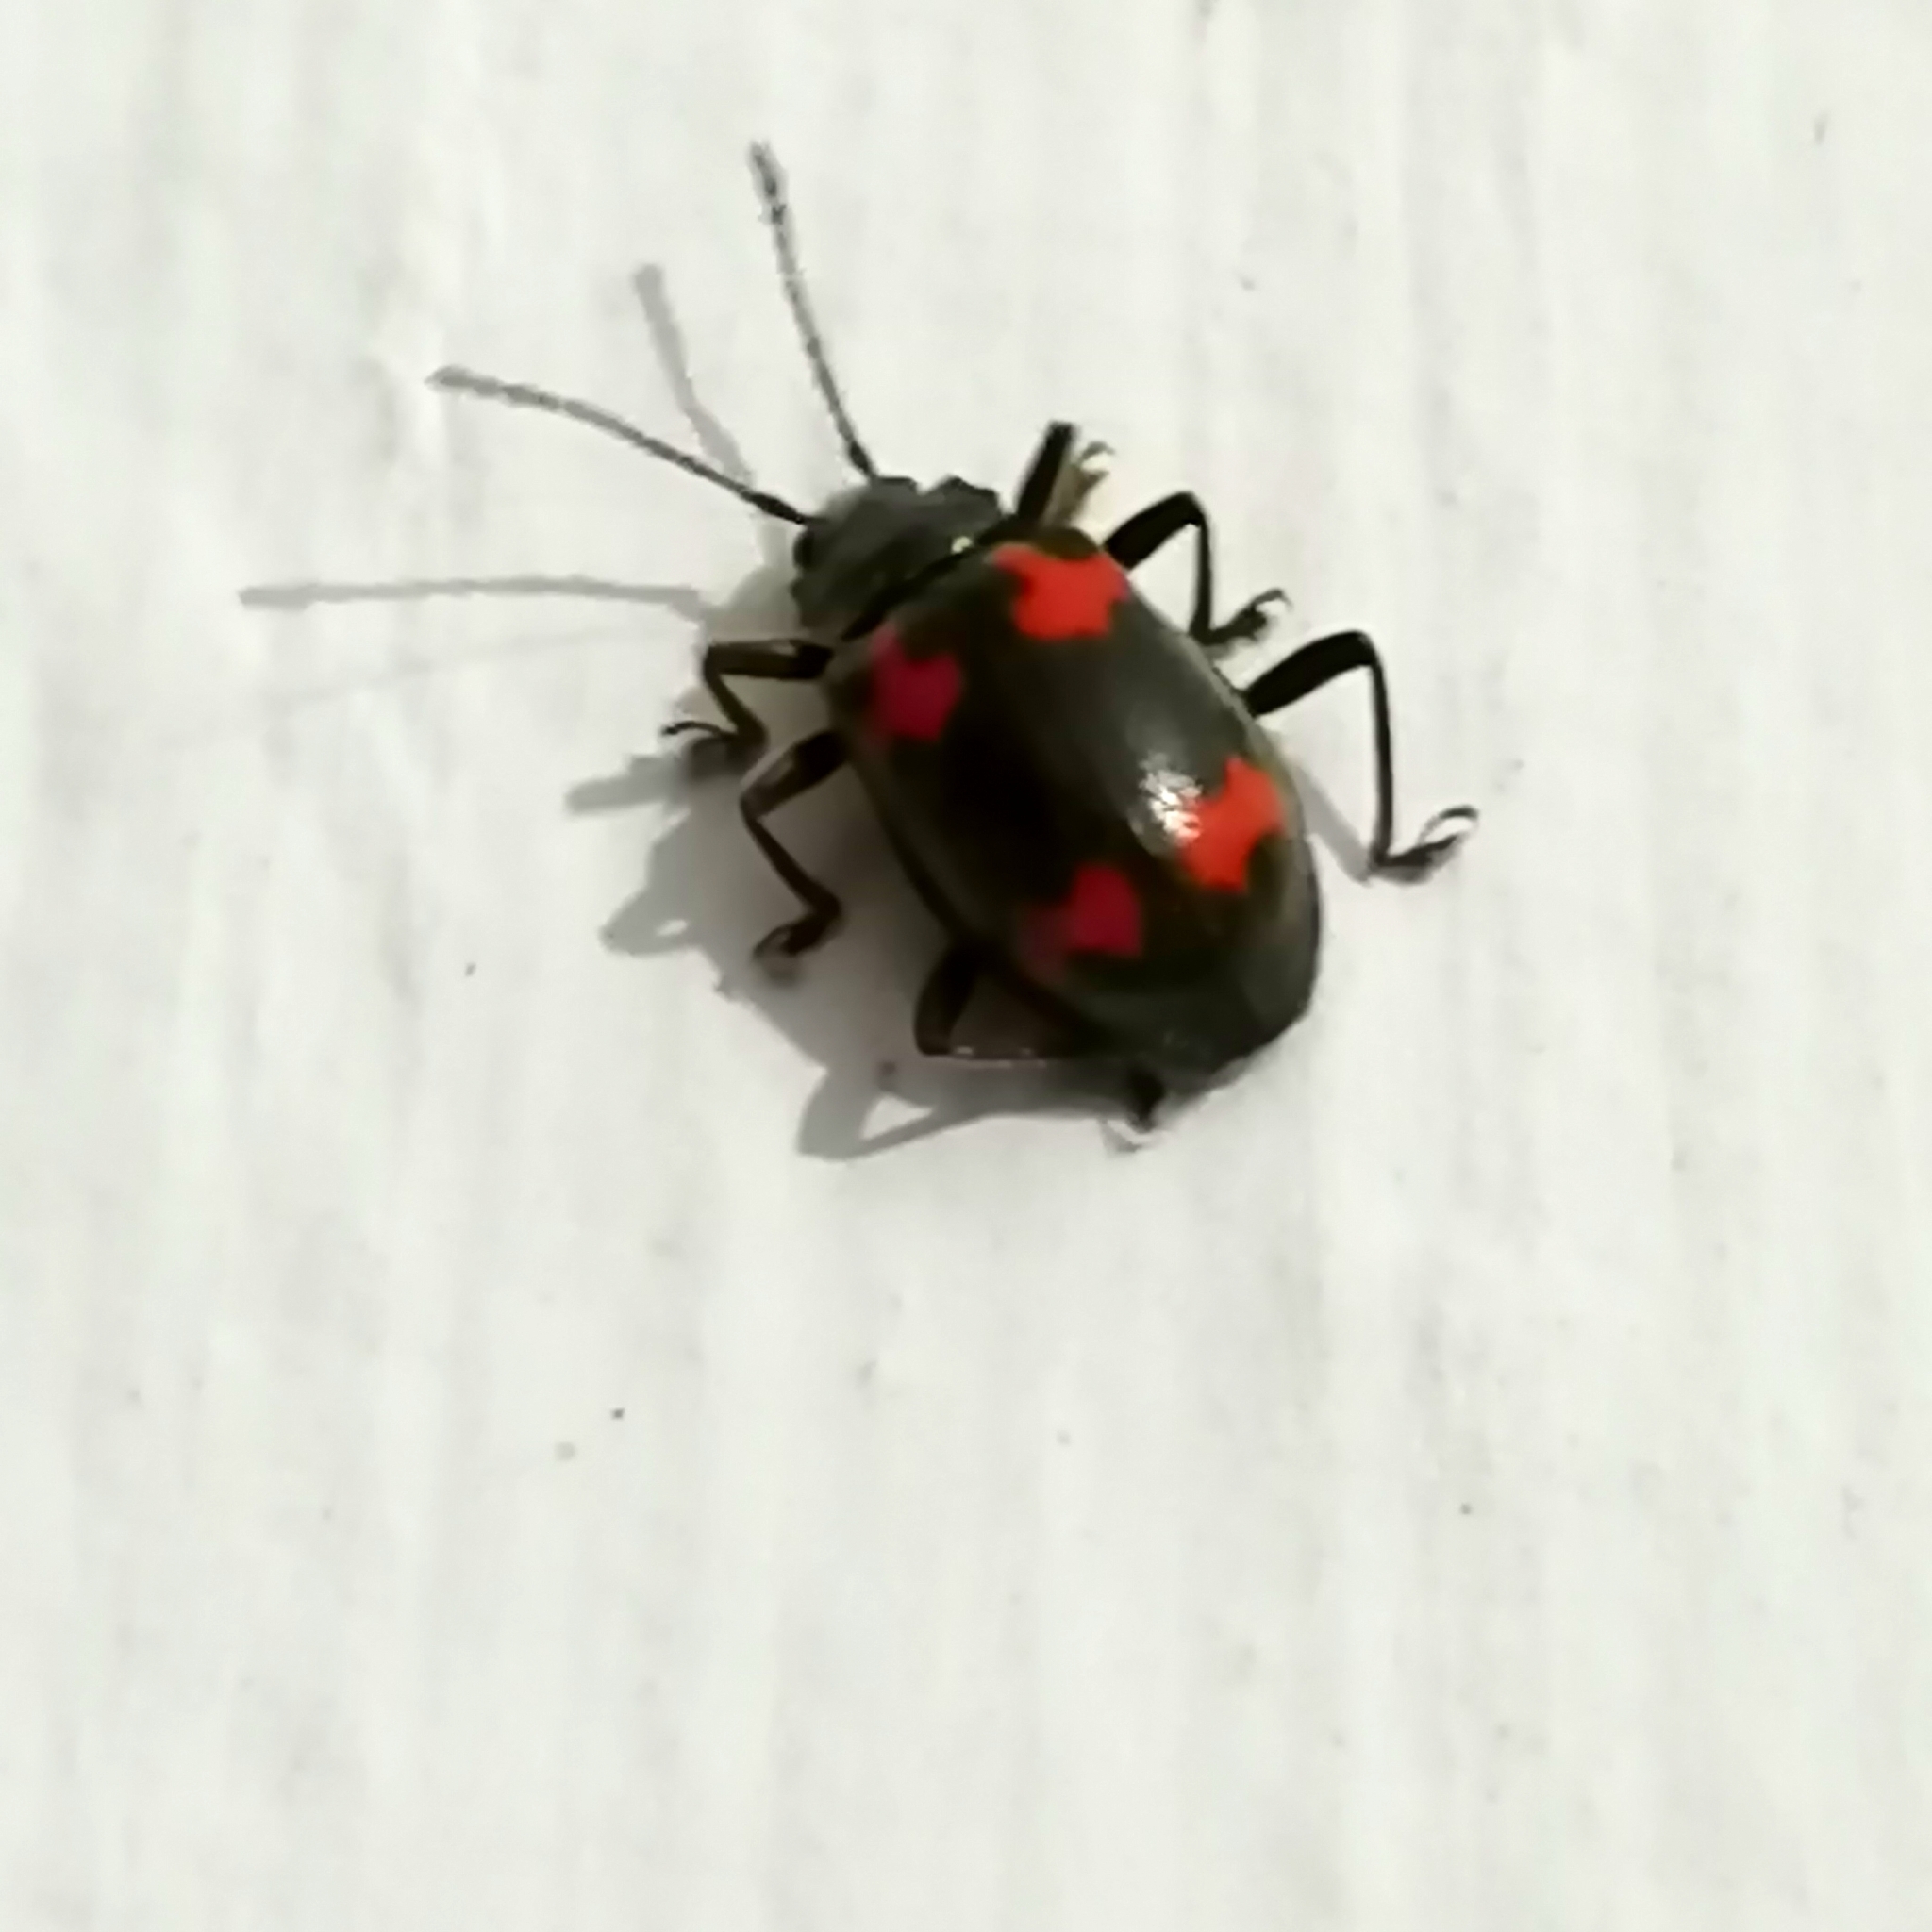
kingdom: Animalia
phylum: Arthropoda
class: Insecta
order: Coleoptera
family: Endomychidae
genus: Parindalmus
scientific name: Parindalmus
